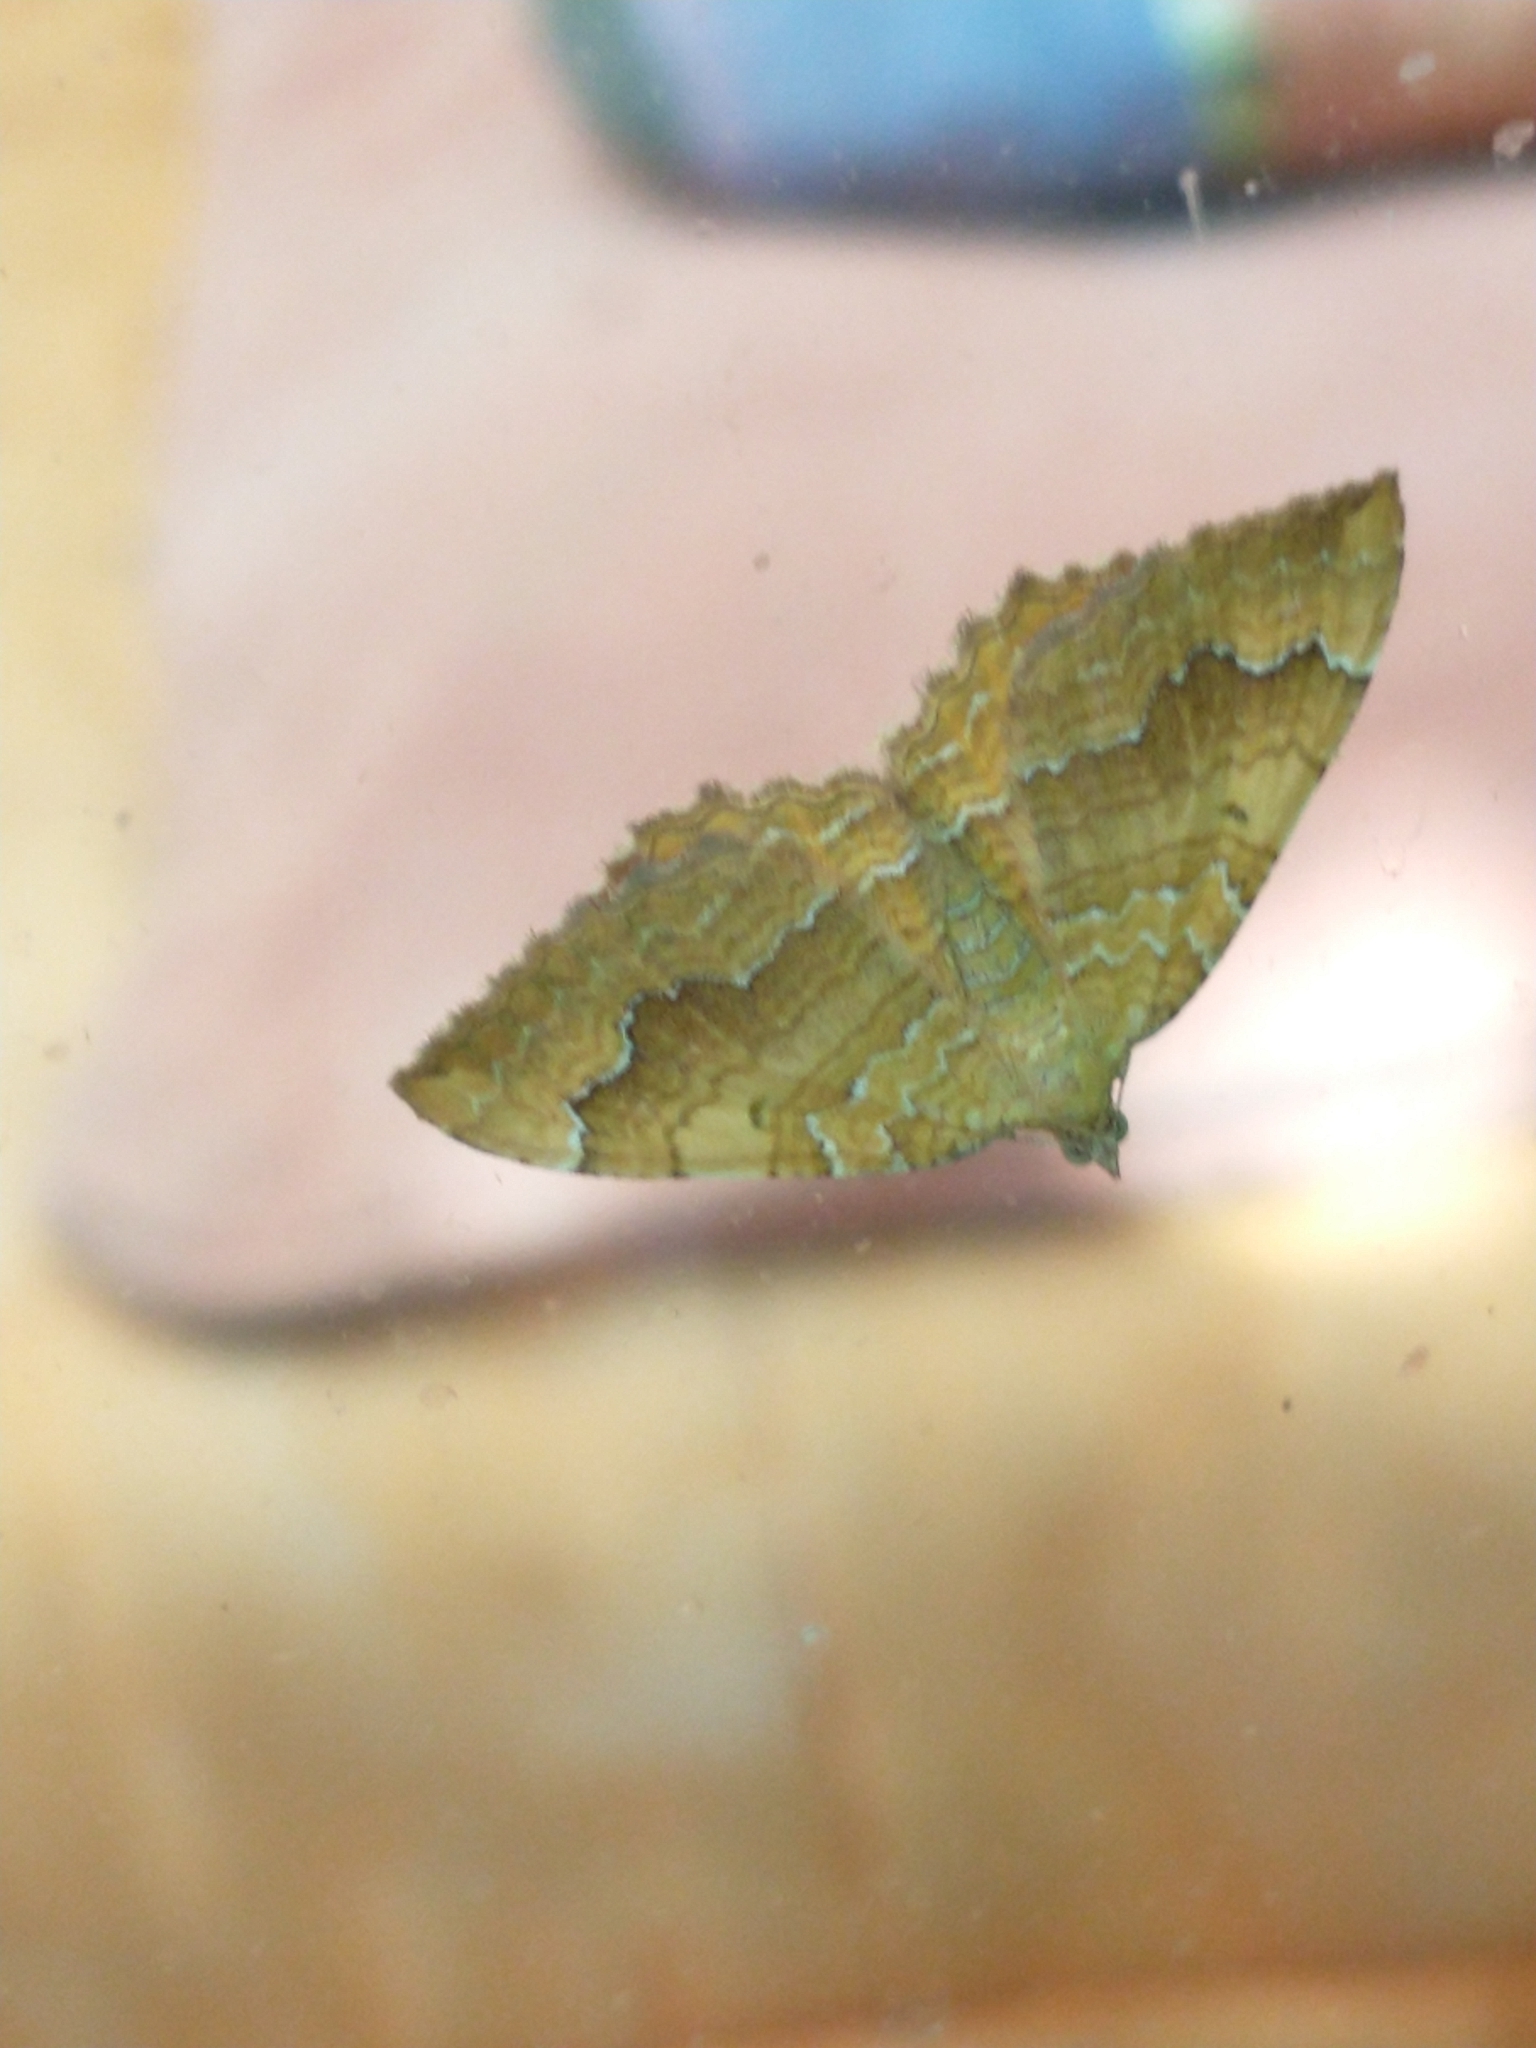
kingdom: Animalia
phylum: Arthropoda
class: Insecta
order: Lepidoptera
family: Geometridae
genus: Camptogramma
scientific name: Camptogramma bilineata
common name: Yellow shell
